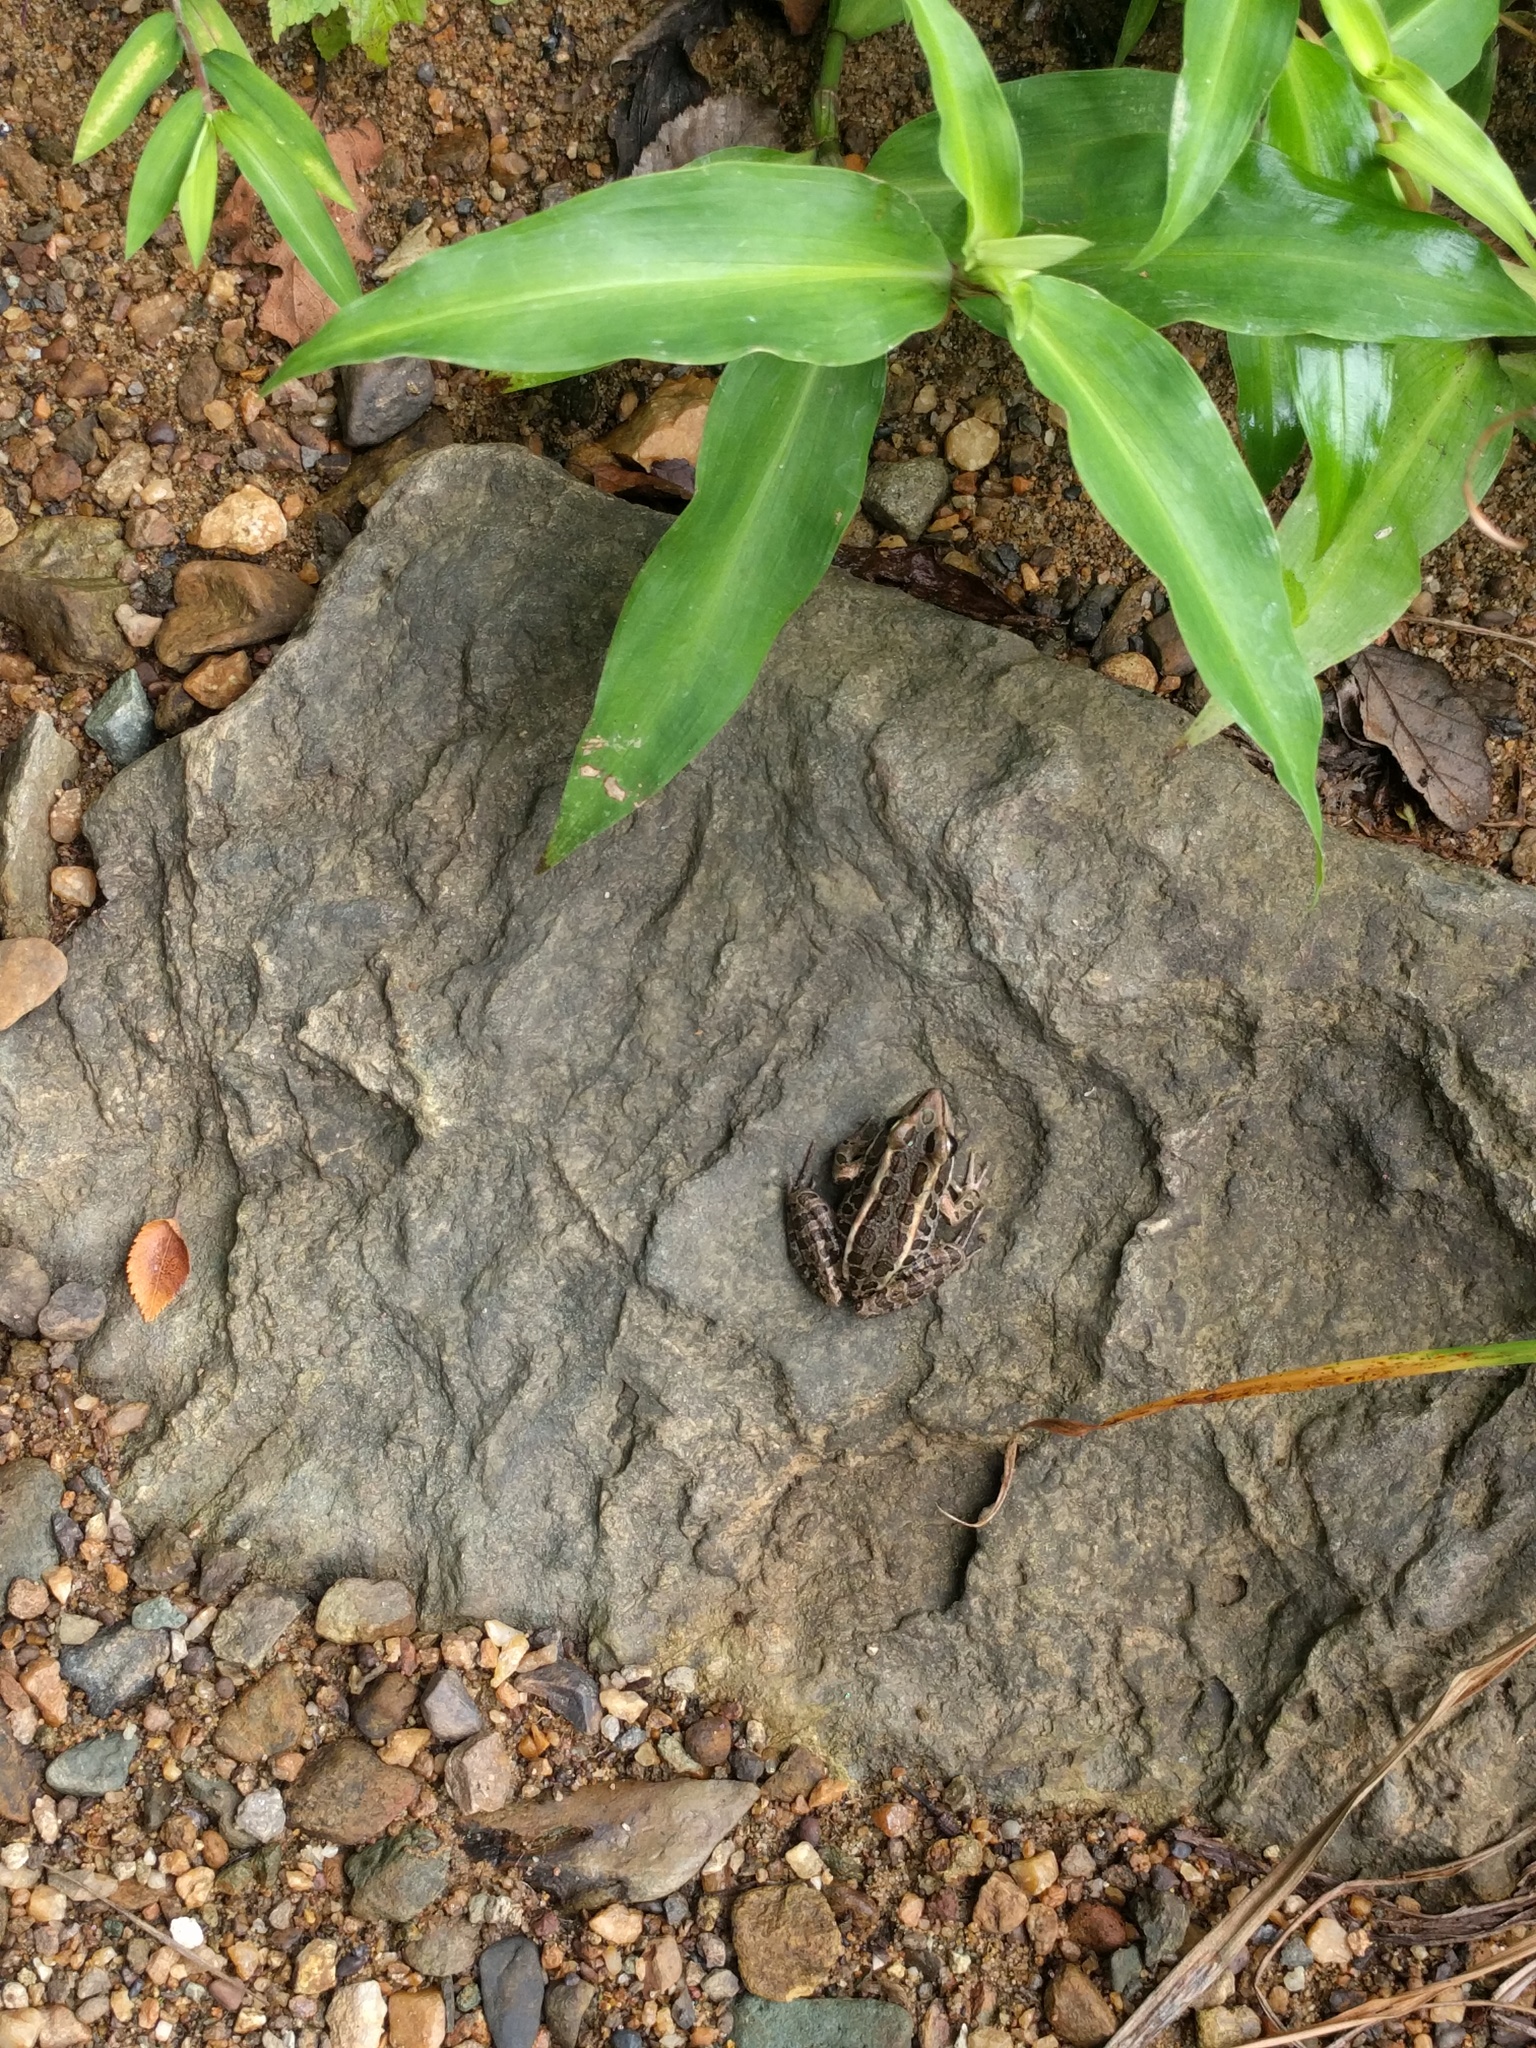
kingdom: Animalia
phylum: Chordata
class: Amphibia
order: Anura
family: Ranidae
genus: Lithobates
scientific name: Lithobates palustris
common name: Pickerel frog
